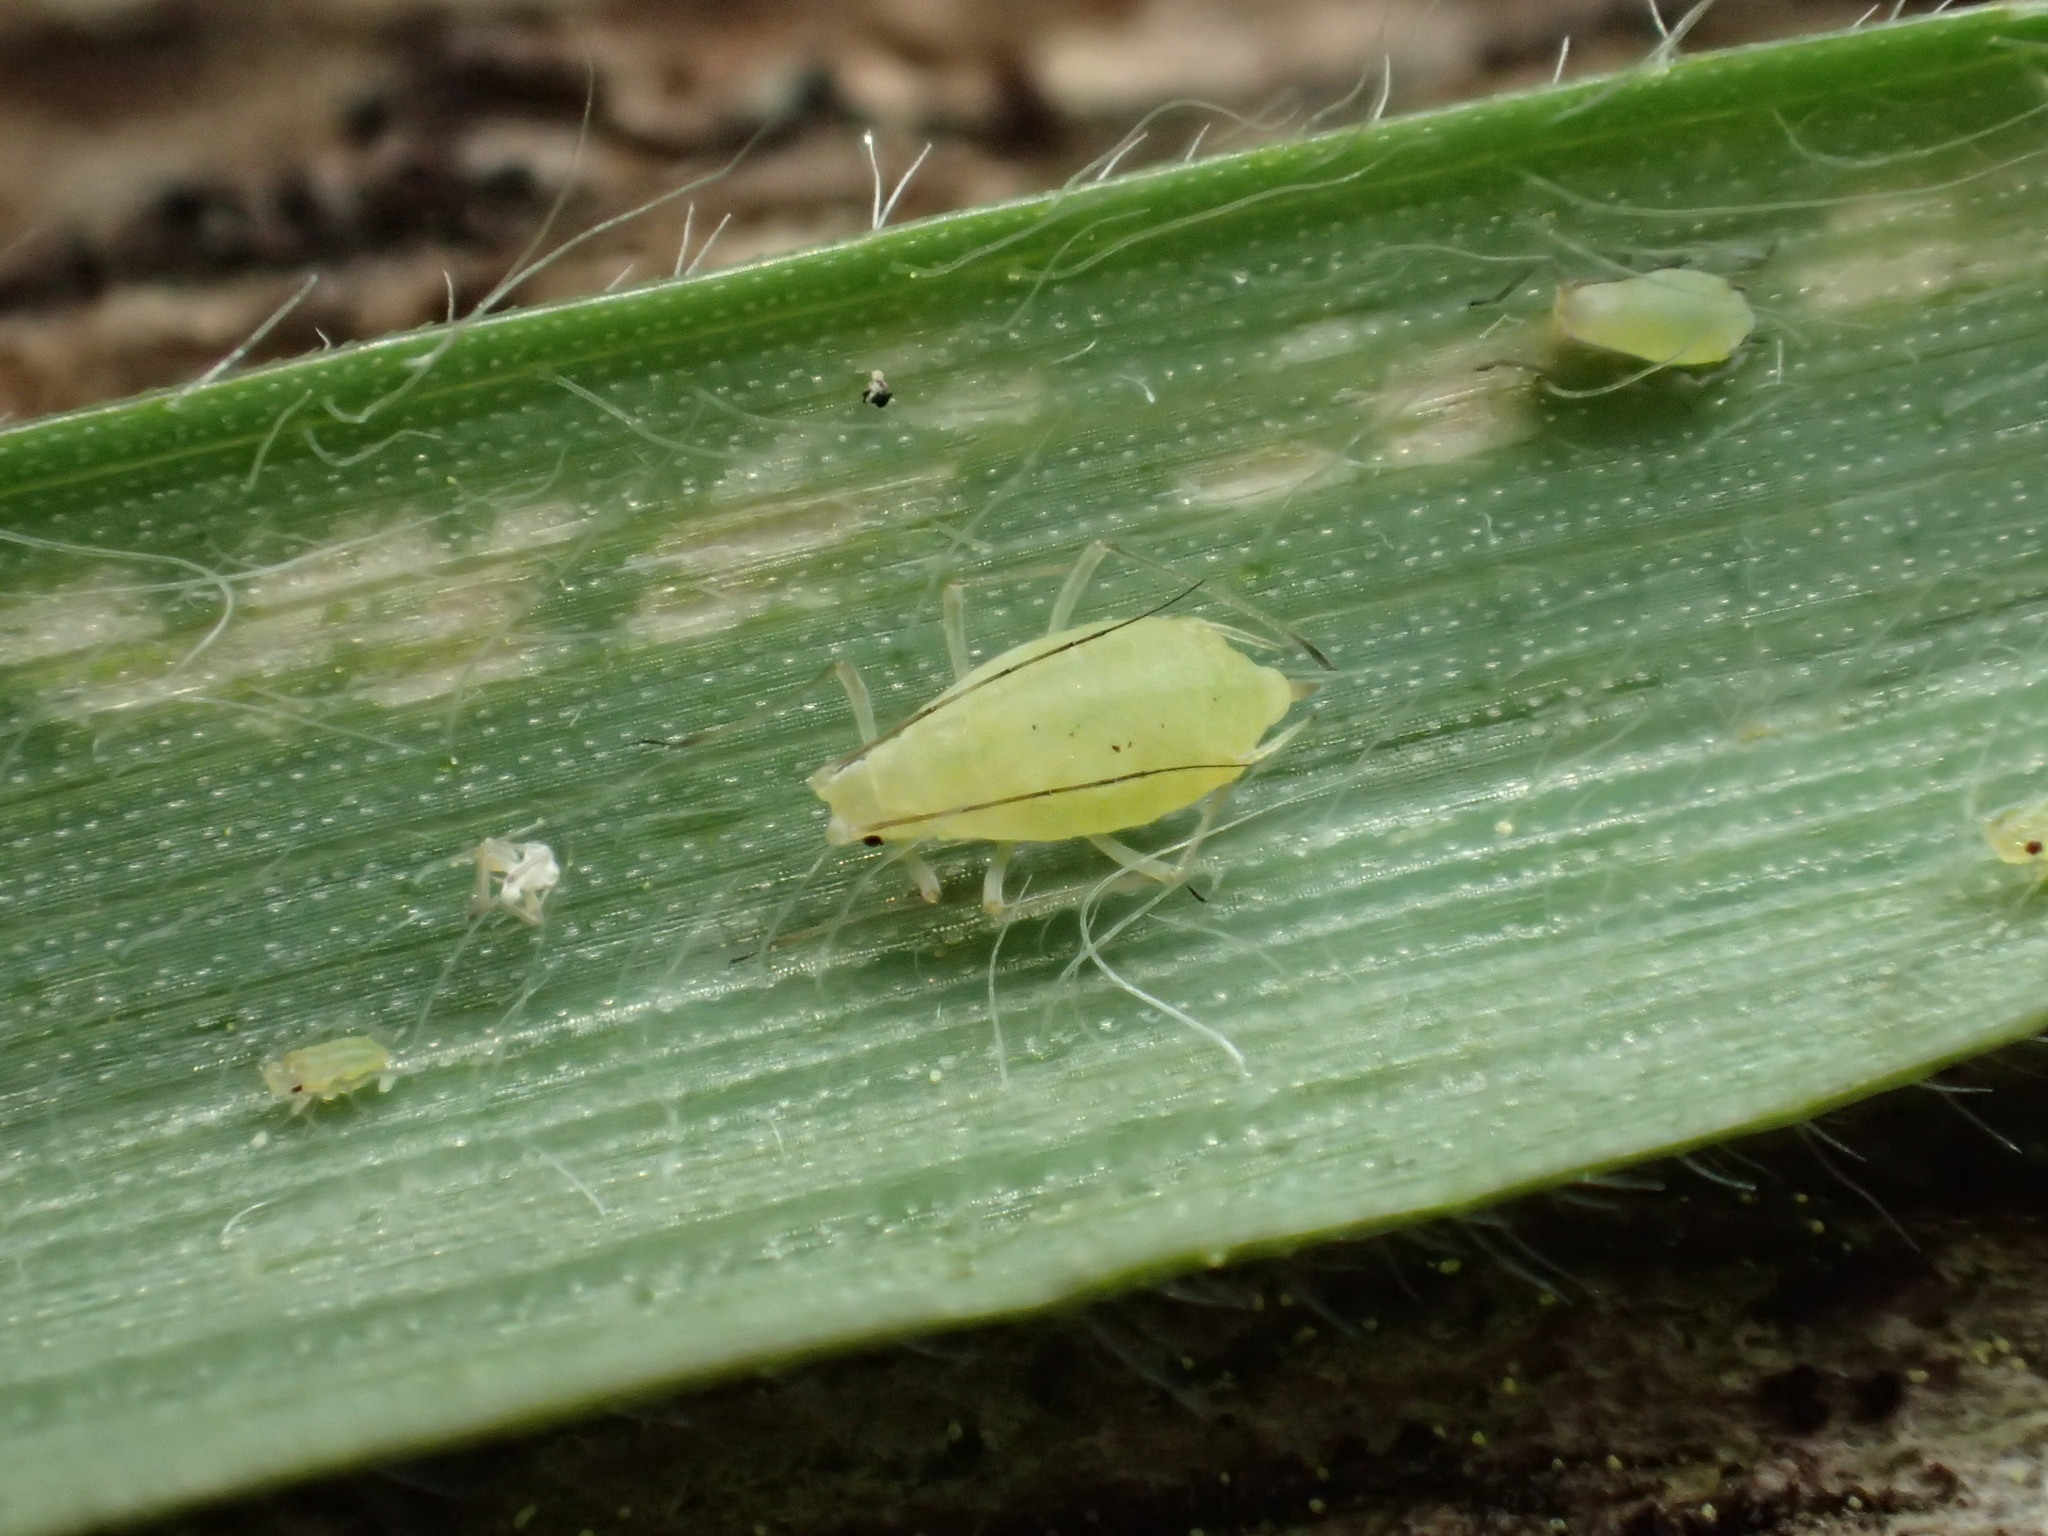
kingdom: Animalia
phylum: Arthropoda
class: Insecta
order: Hemiptera
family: Aphididae
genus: Metopolophium
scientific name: Metopolophium dirhodum
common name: Rose-grass aphid
